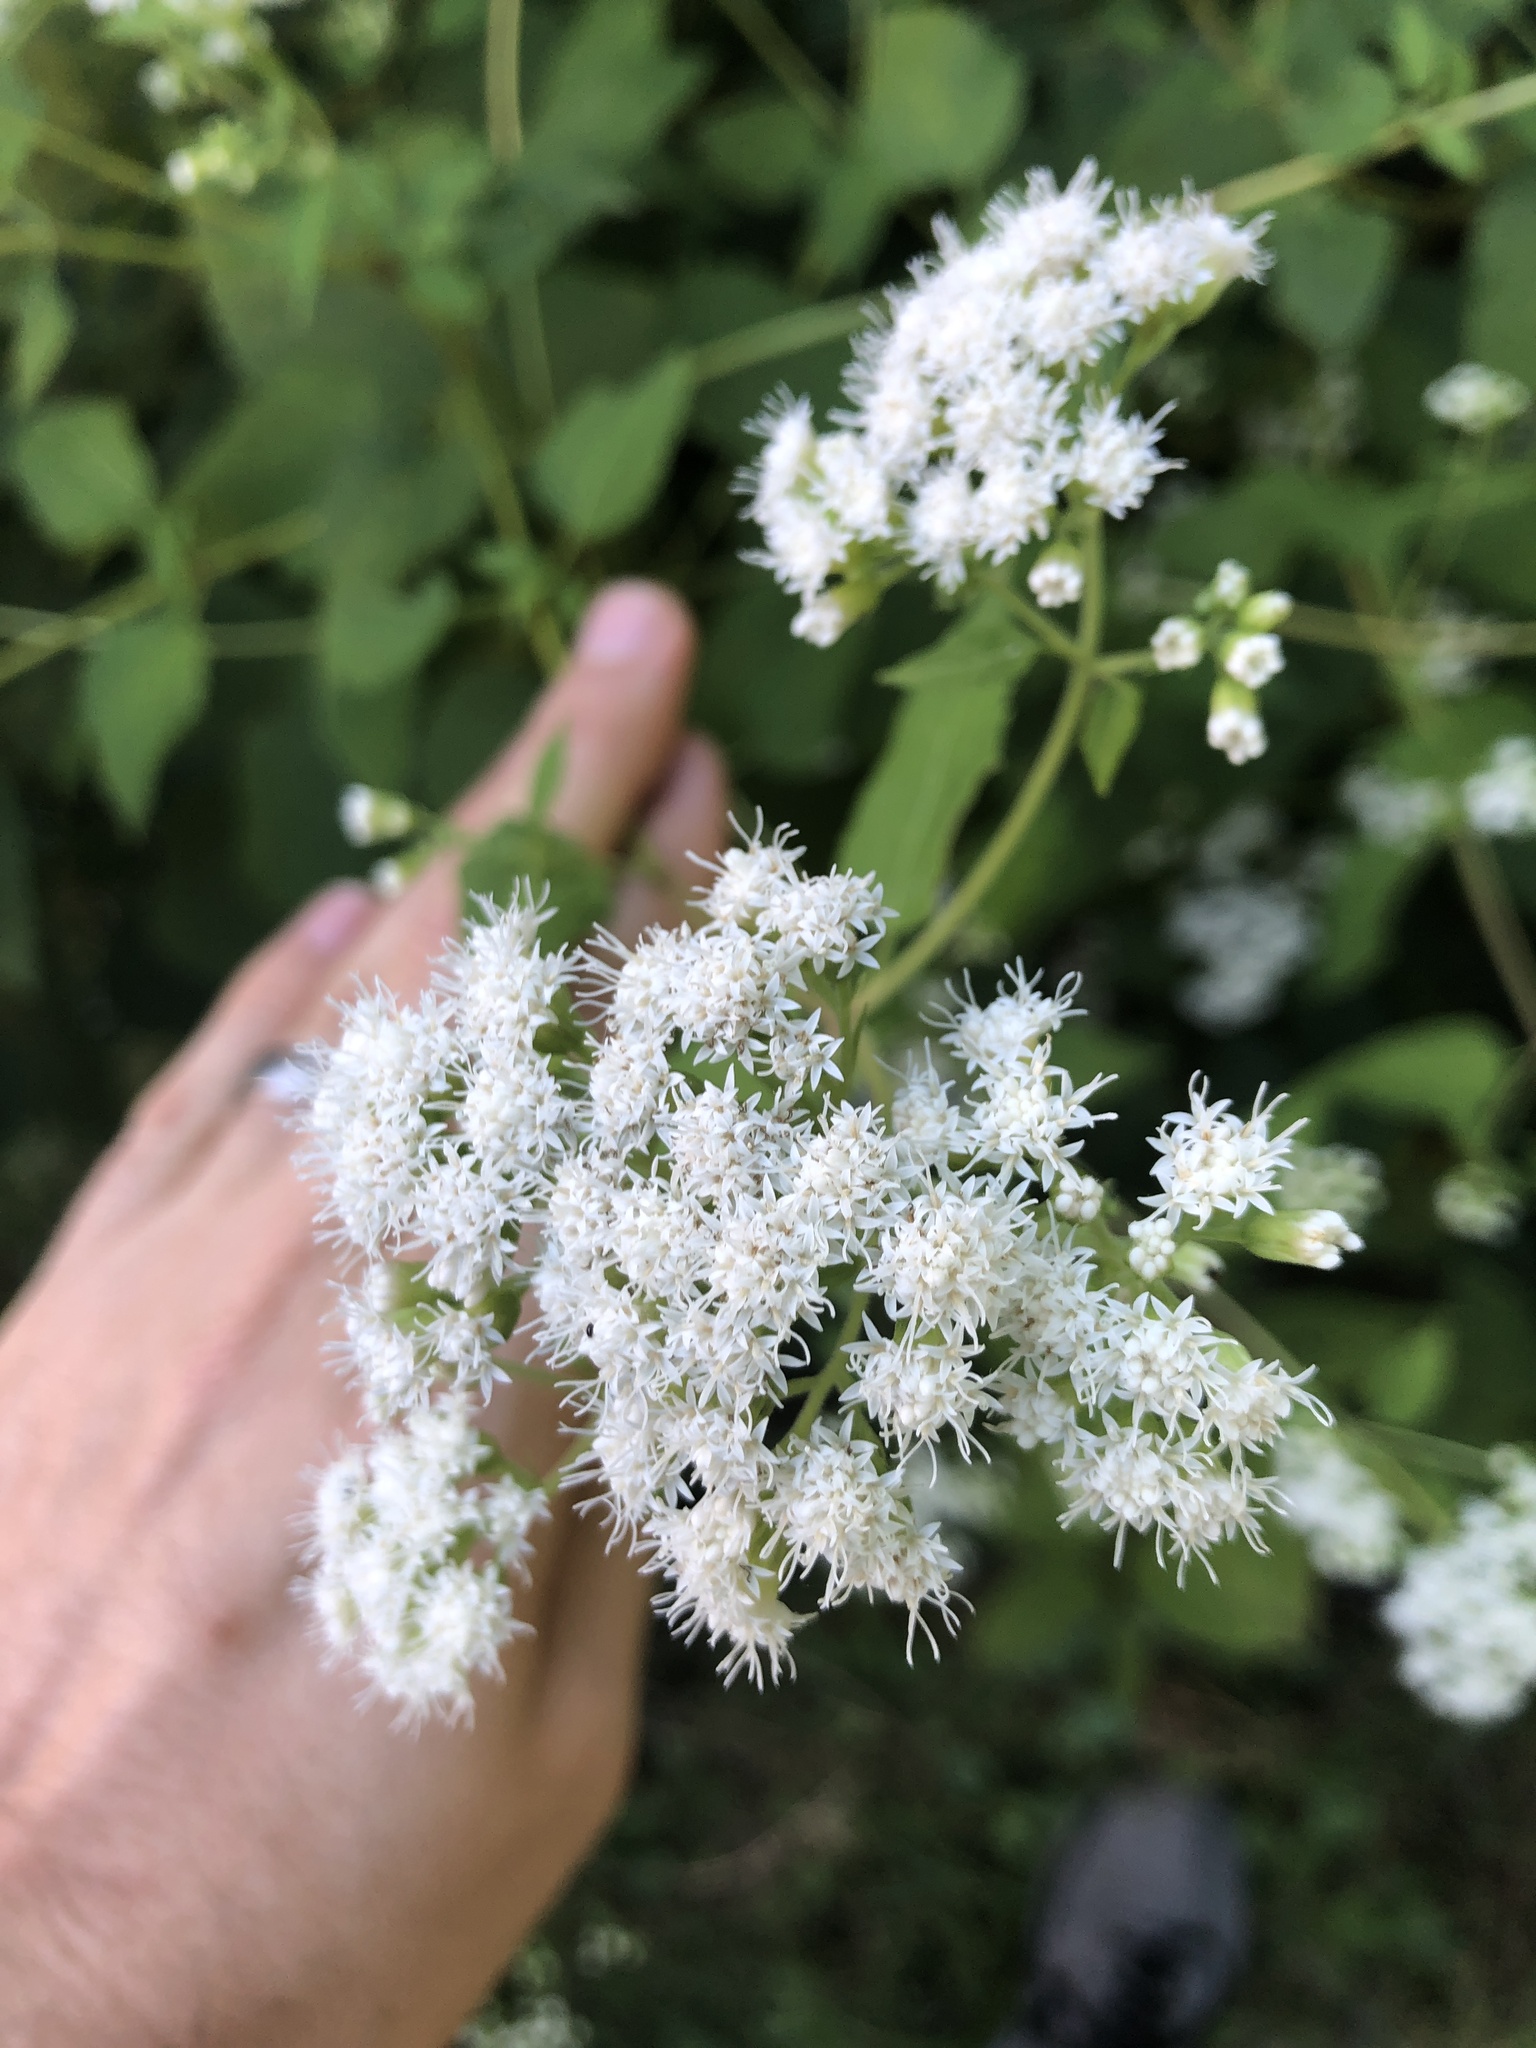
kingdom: Plantae
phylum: Tracheophyta
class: Magnoliopsida
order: Asterales
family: Asteraceae
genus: Ageratina
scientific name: Ageratina altissima
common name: White snakeroot
